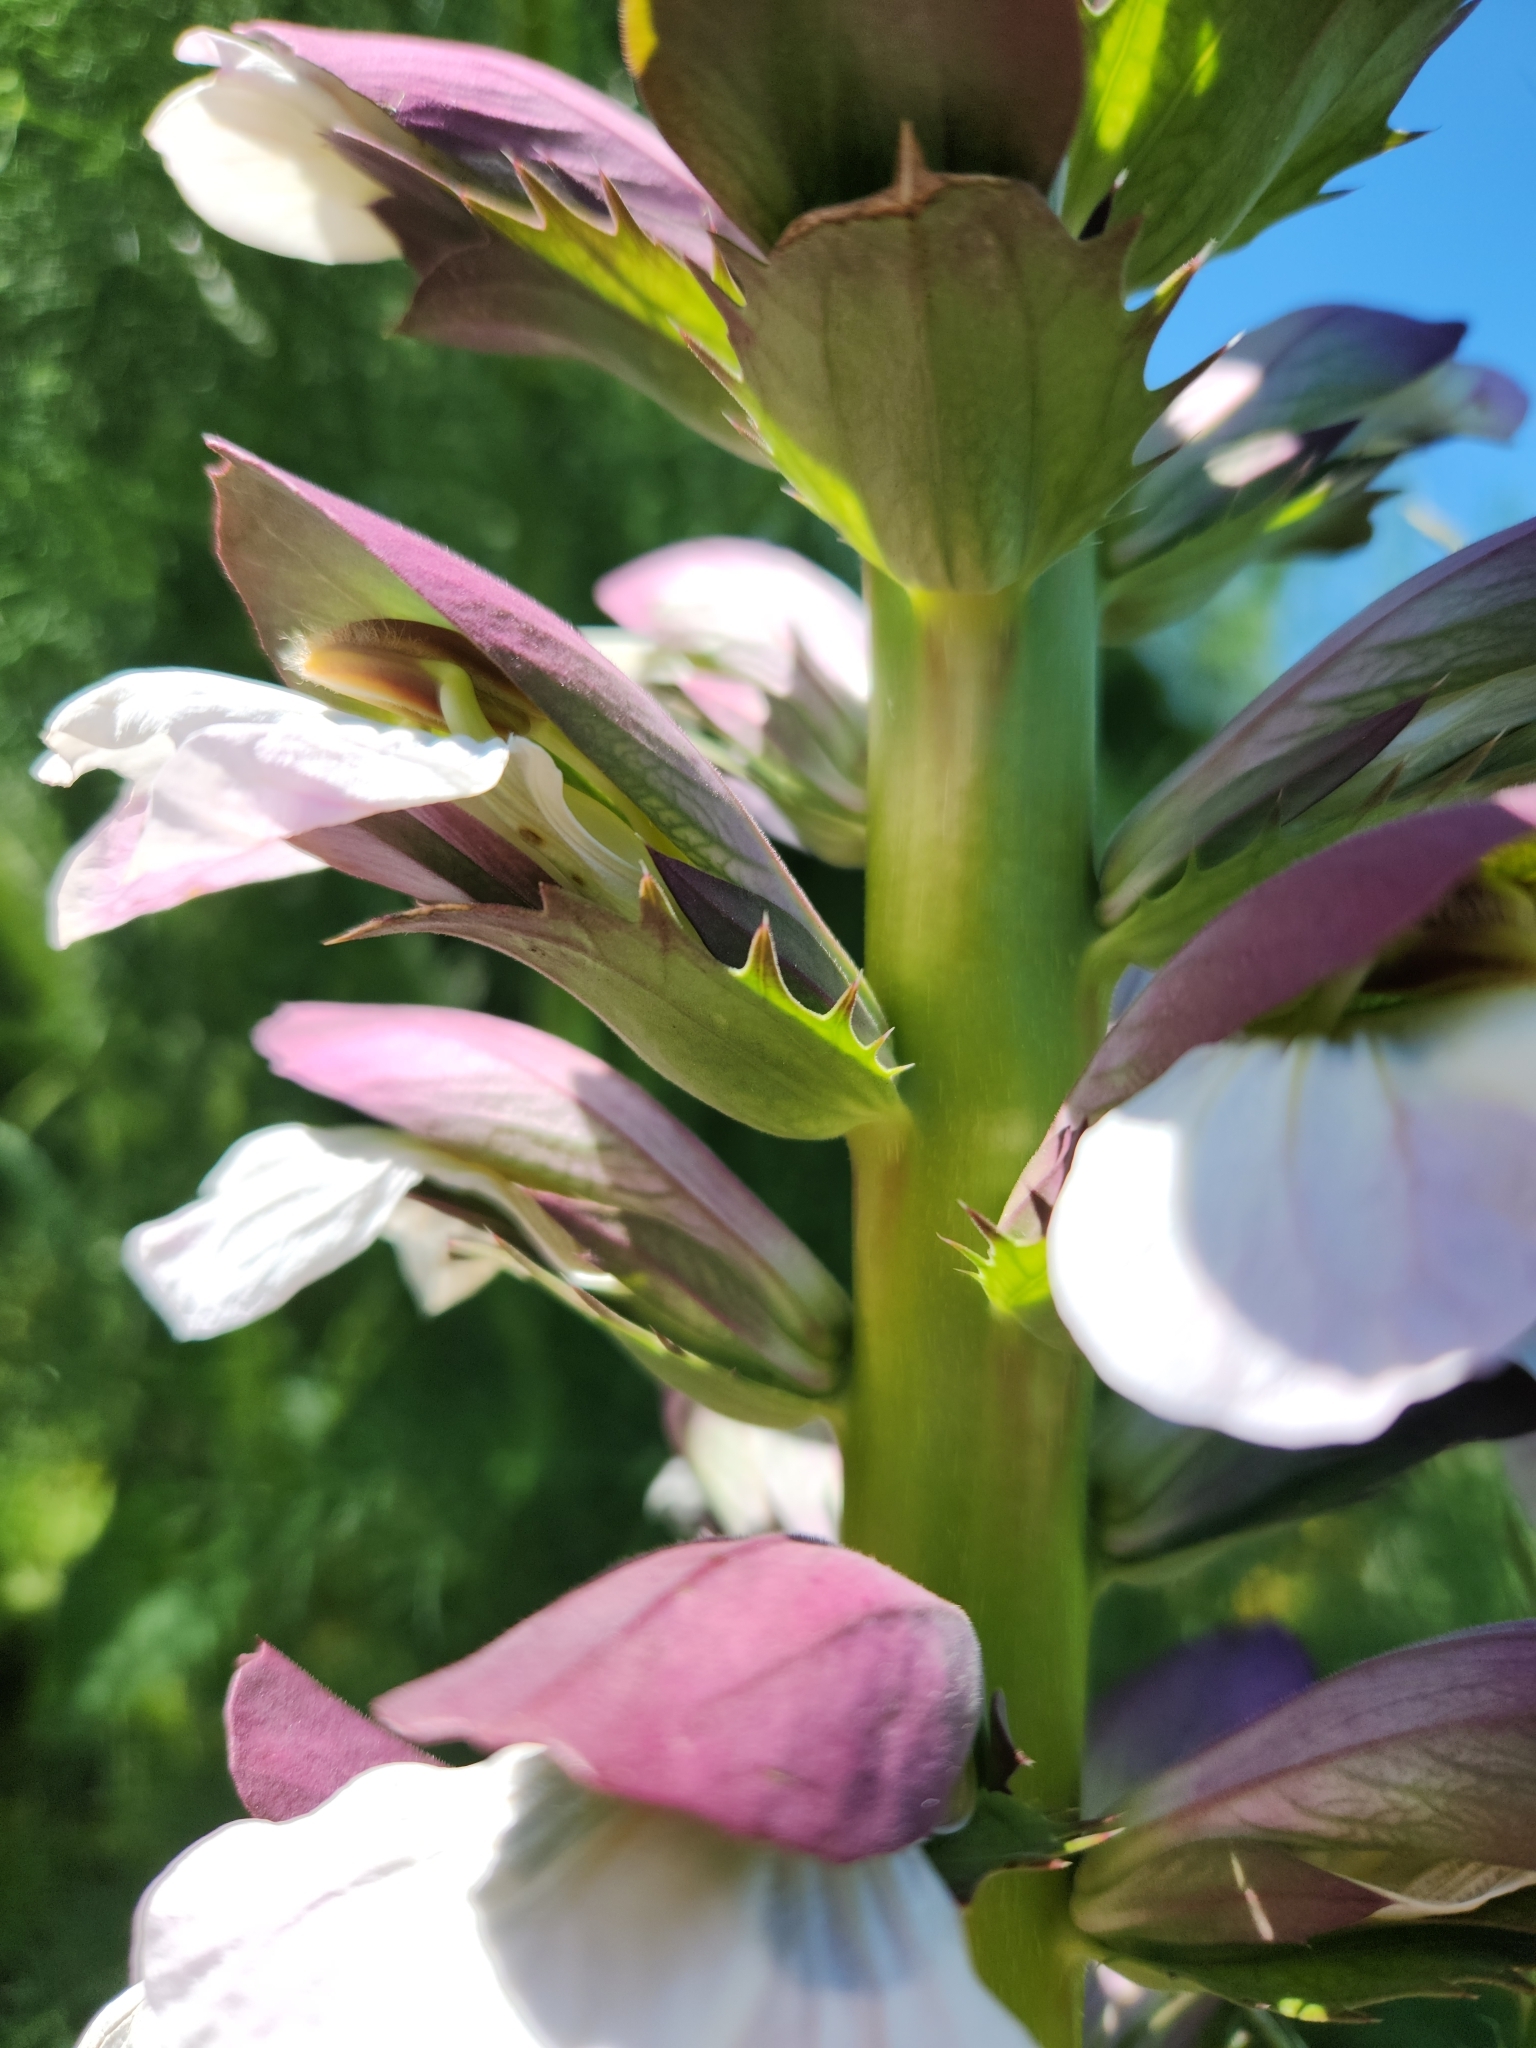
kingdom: Plantae
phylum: Tracheophyta
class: Magnoliopsida
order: Lamiales
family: Acanthaceae
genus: Acanthus
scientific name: Acanthus mollis
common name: Bear's-breech
